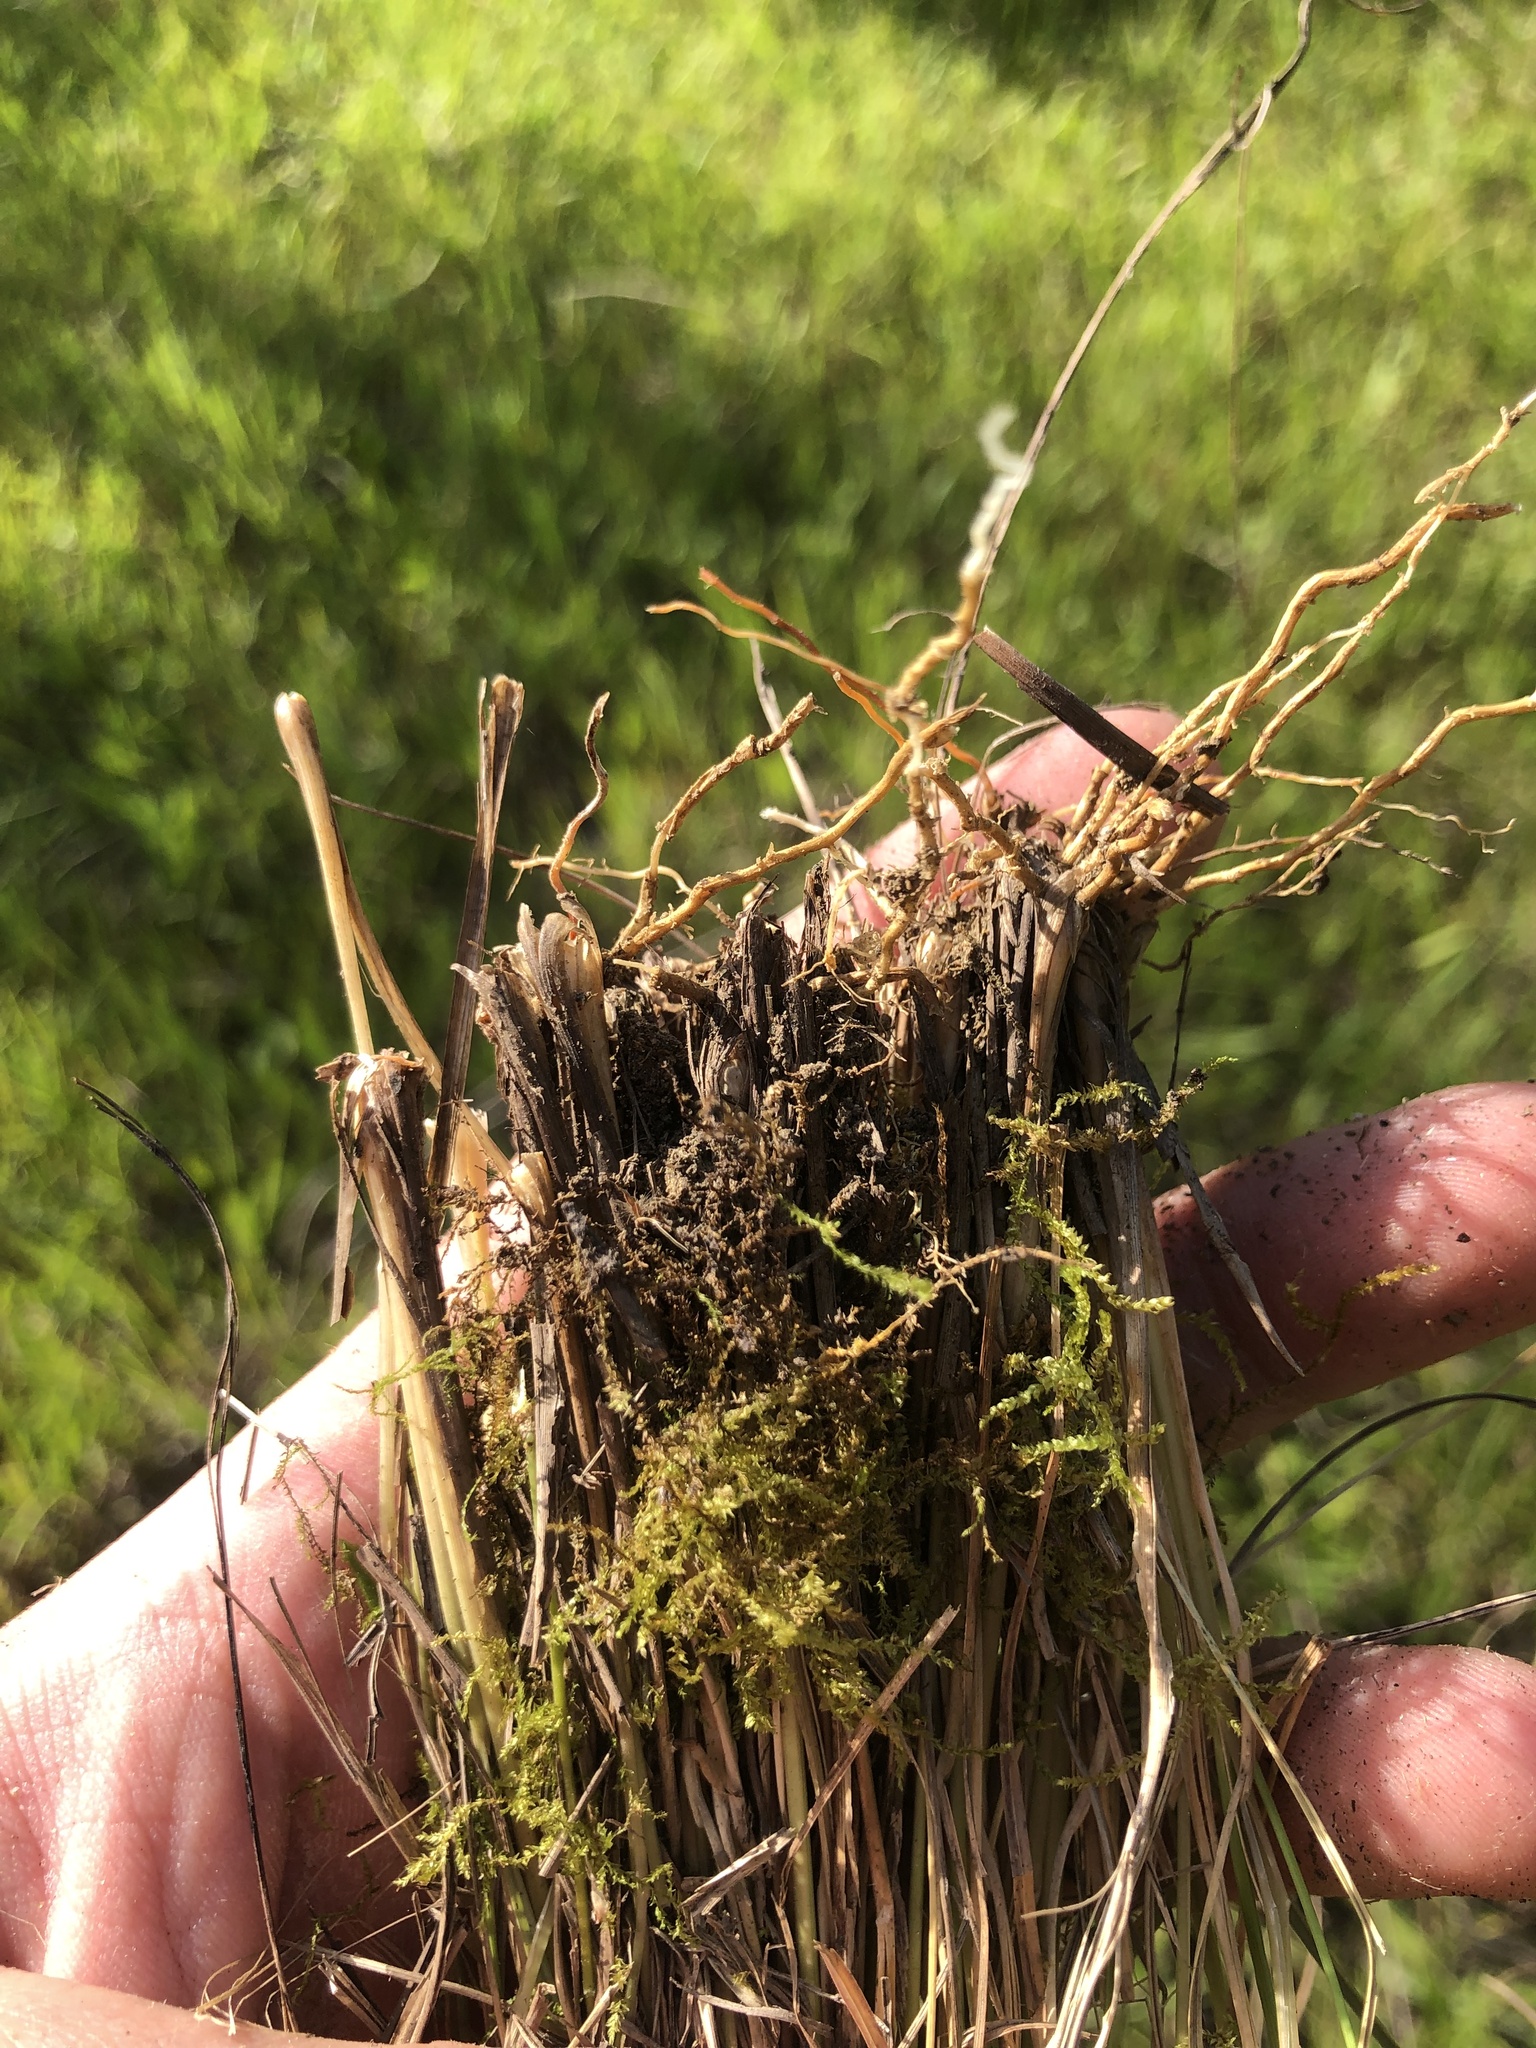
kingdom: Plantae
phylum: Tracheophyta
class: Liliopsida
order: Poales
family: Poaceae
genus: Muhlenbergia
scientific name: Muhlenbergia capillaris
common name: Purple grass
